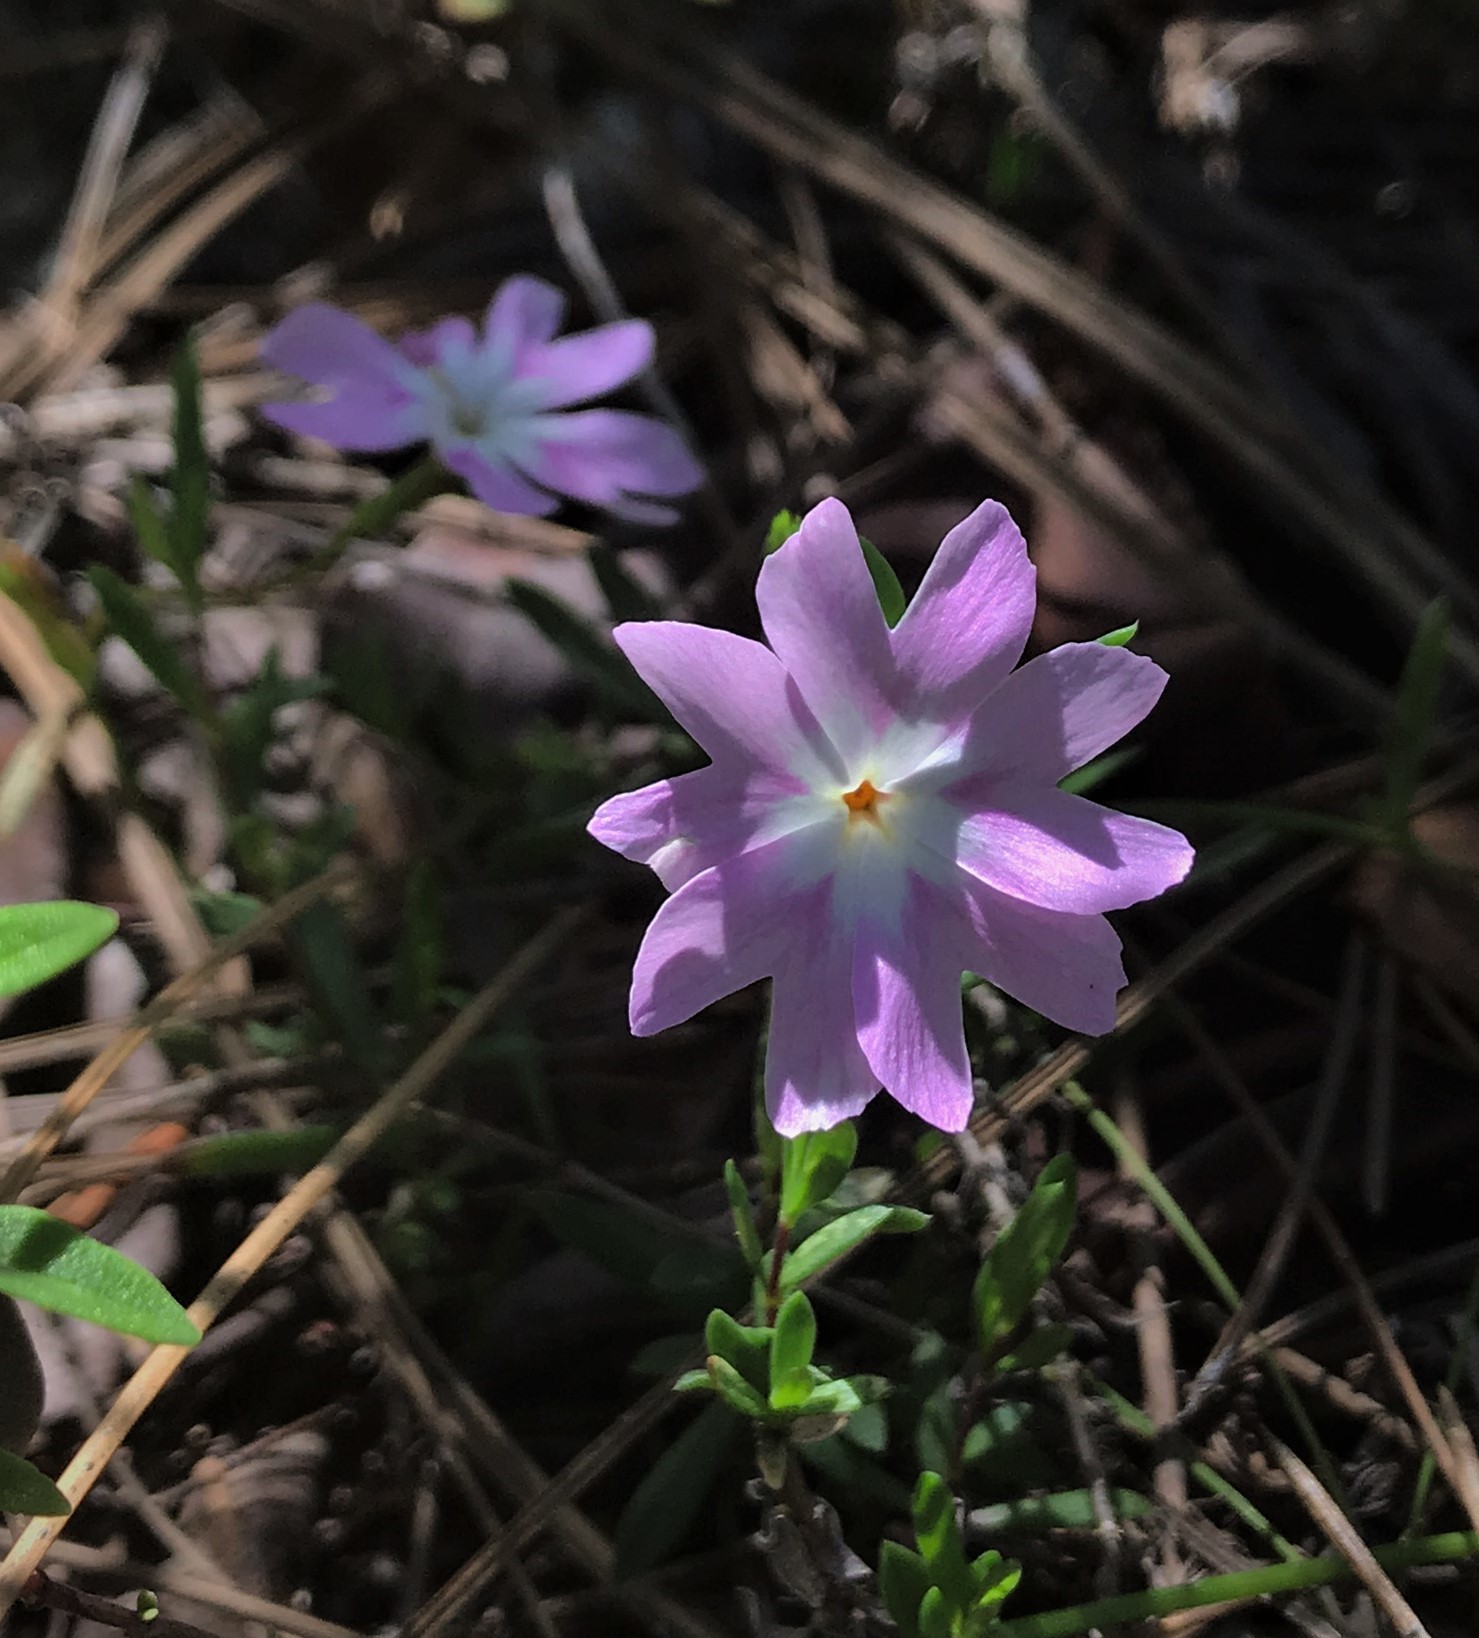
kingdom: Plantae
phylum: Tracheophyta
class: Magnoliopsida
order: Ericales
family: Polemoniaceae
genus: Phlox
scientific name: Phlox speciosa
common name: Bush phlox
